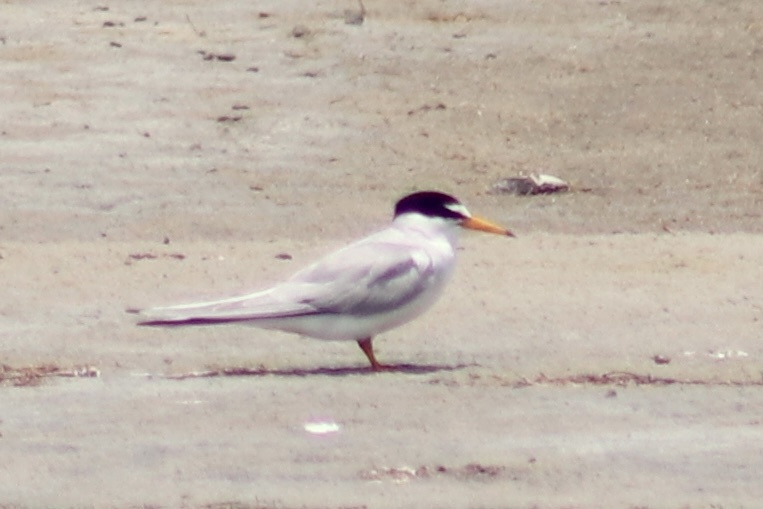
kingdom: Animalia
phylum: Chordata
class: Aves
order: Charadriiformes
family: Laridae
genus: Sternula
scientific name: Sternula antillarum
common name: Least tern
